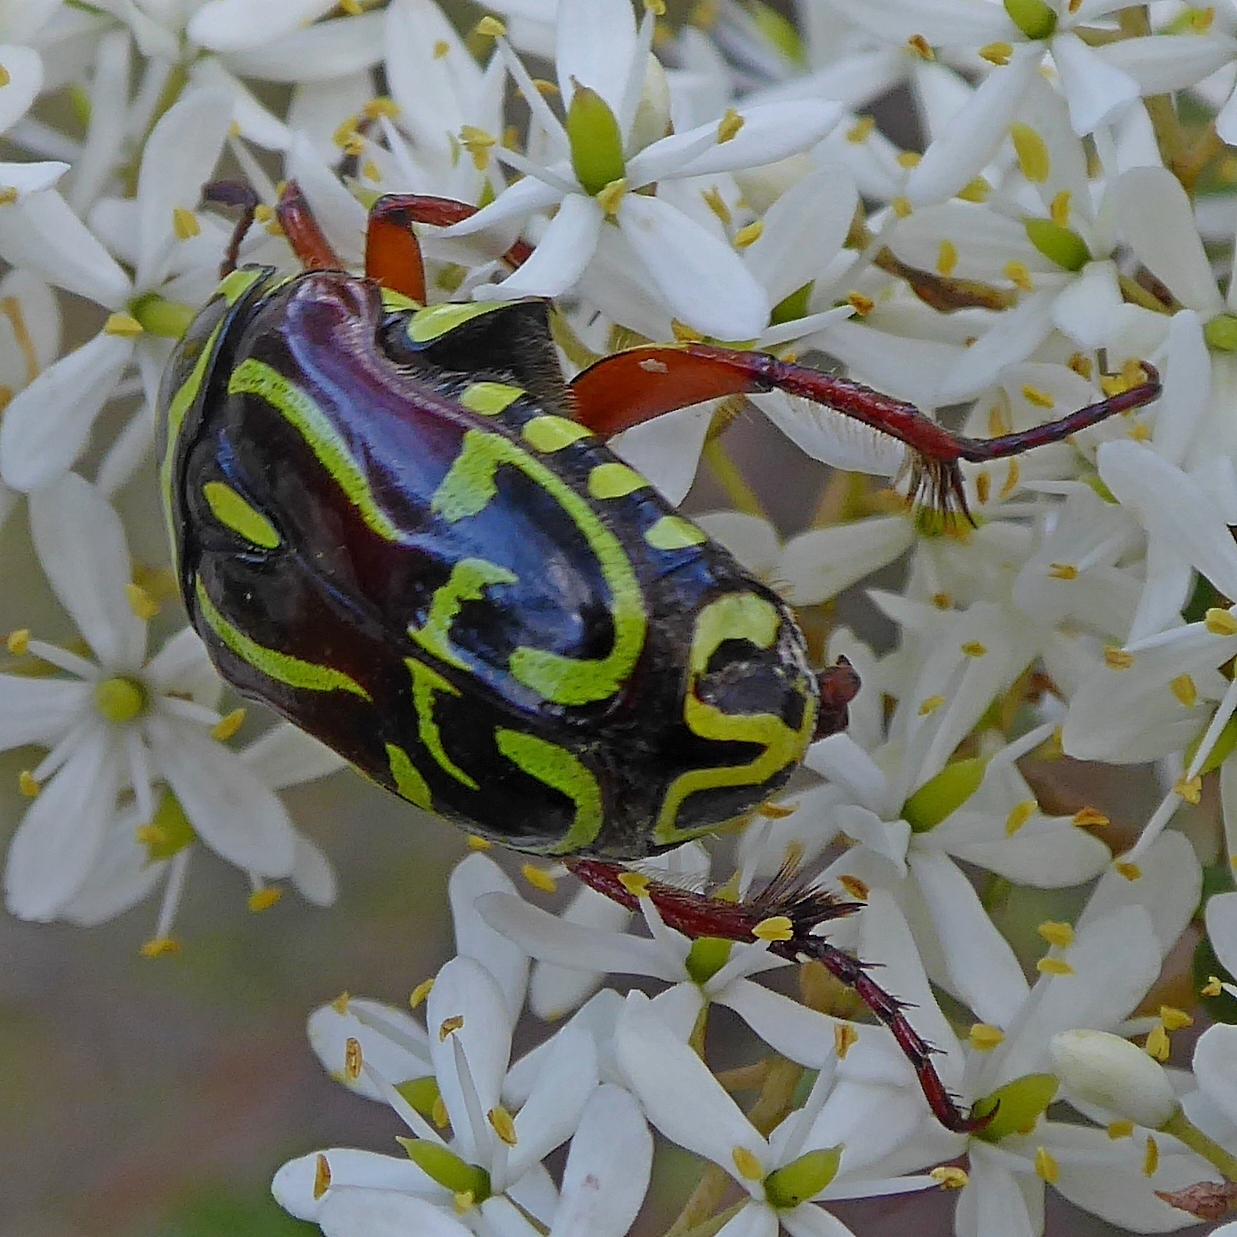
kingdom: Animalia
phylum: Arthropoda
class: Insecta
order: Coleoptera
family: Scarabaeidae
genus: Eupoecila
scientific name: Eupoecila australasiae
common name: Fiddler beetle
